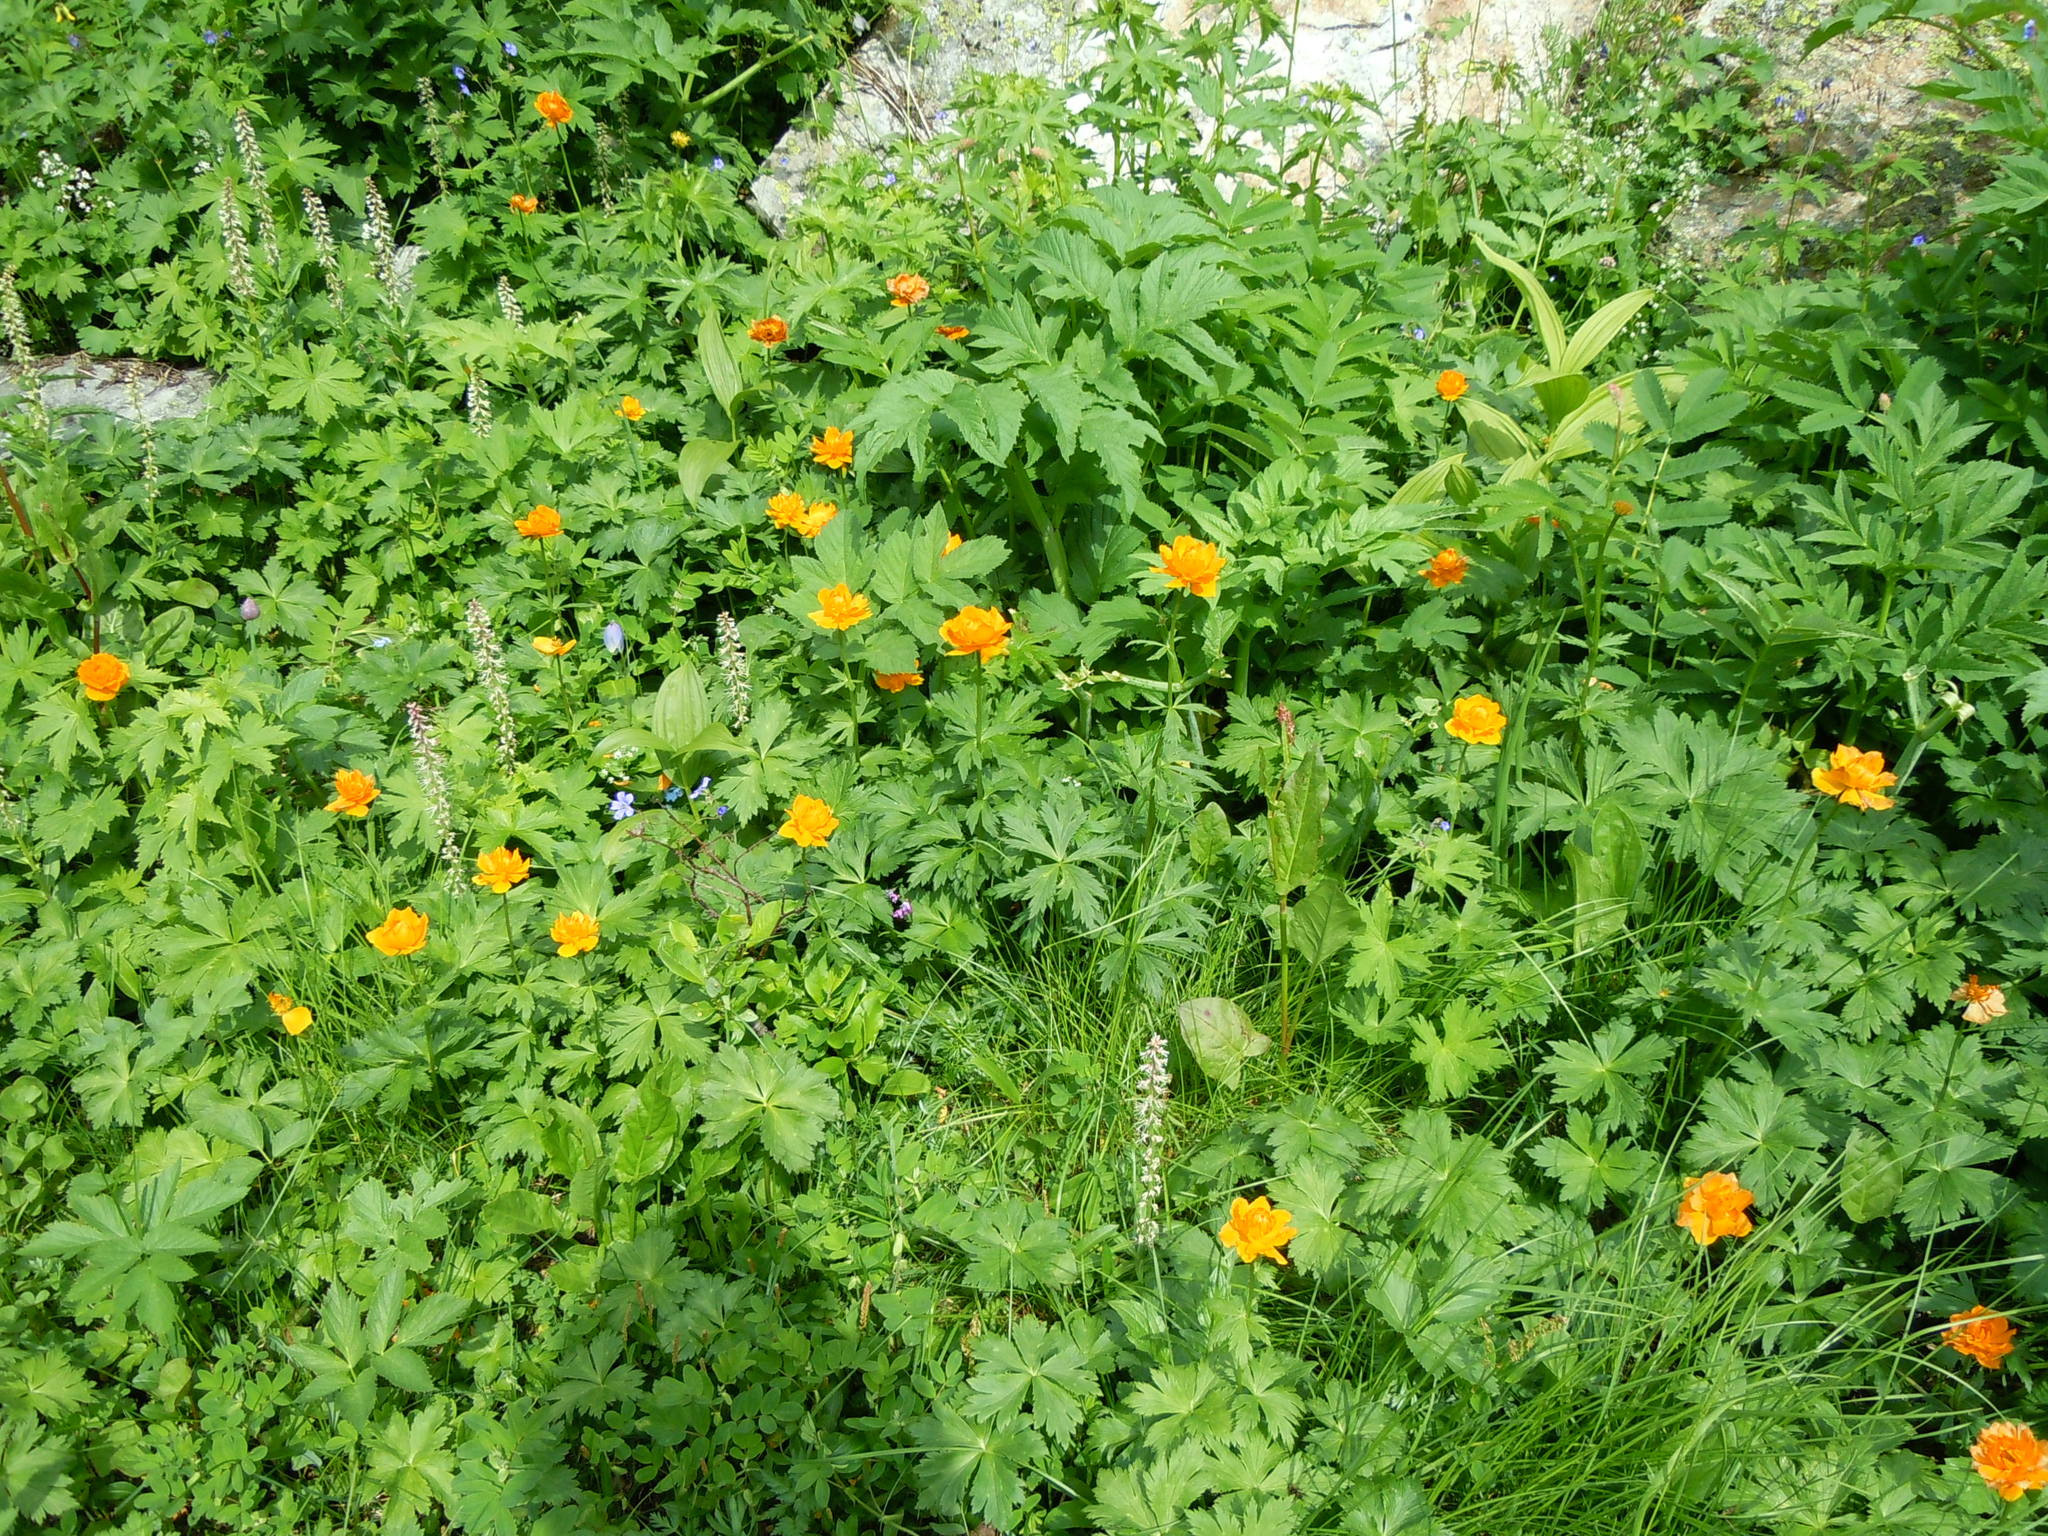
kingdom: Plantae
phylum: Tracheophyta
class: Magnoliopsida
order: Ranunculales
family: Ranunculaceae
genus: Trollius
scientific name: Trollius asiaticus
